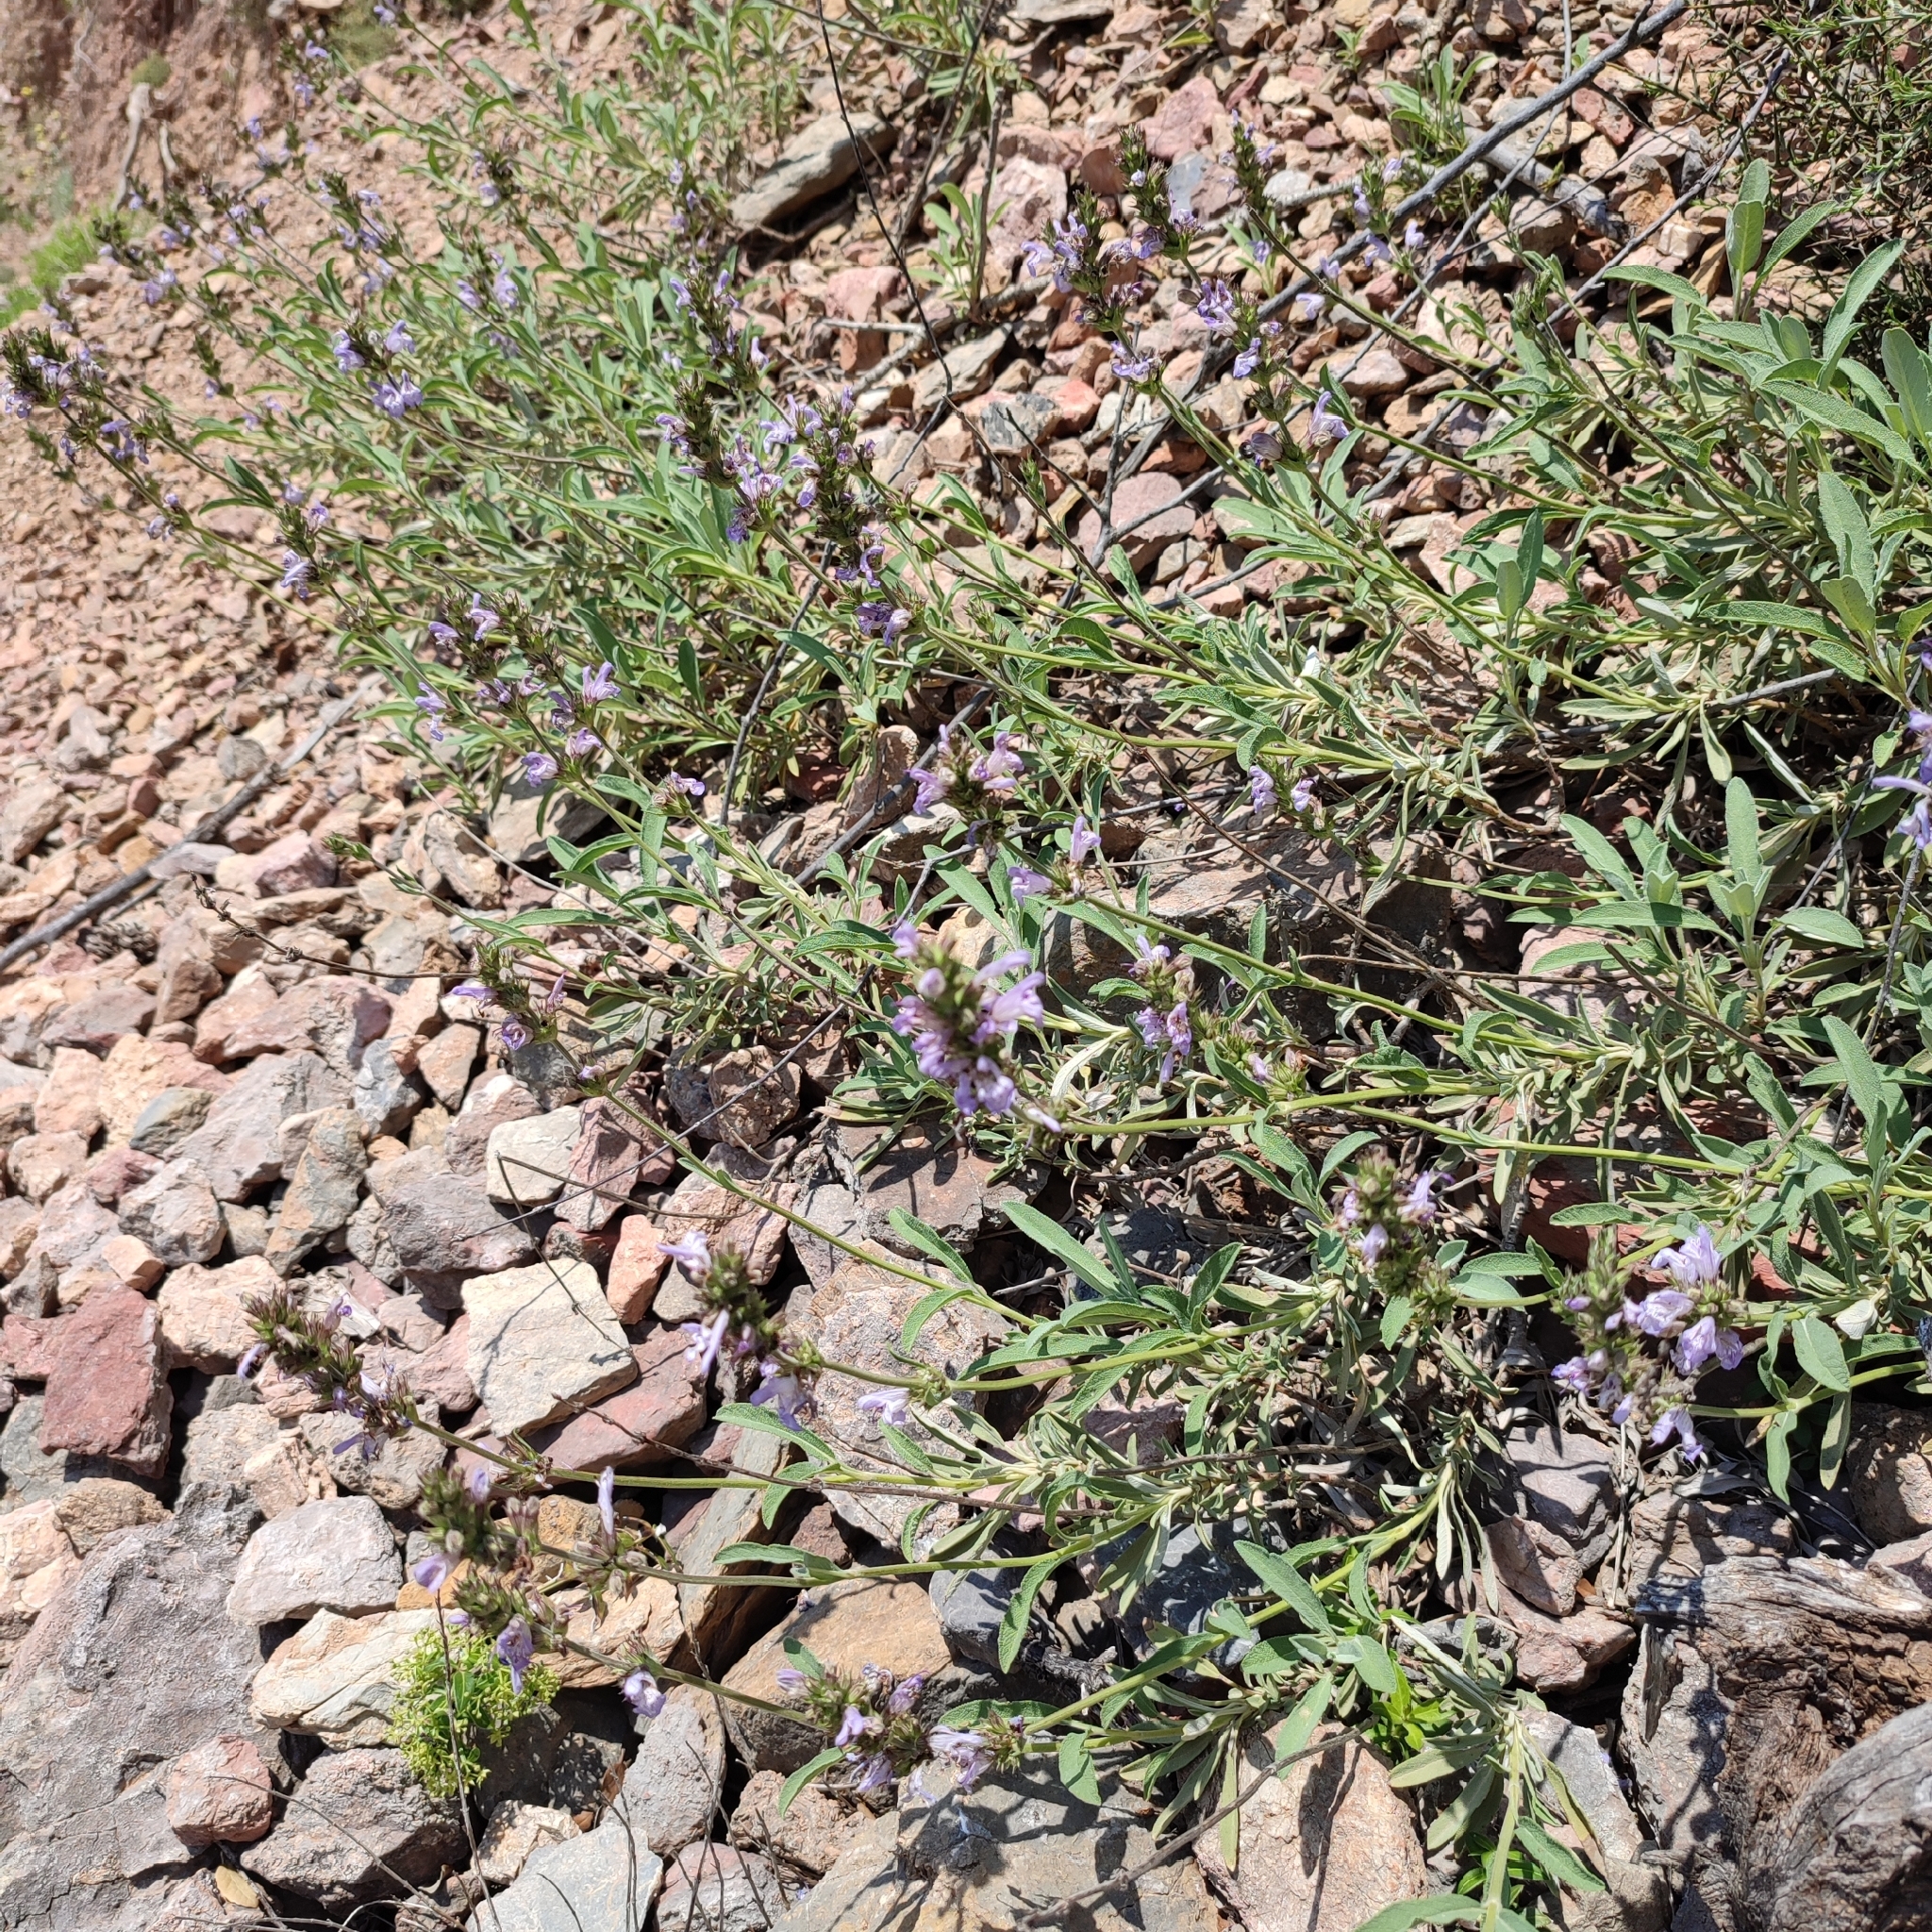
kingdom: Plantae
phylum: Tracheophyta
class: Magnoliopsida
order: Lamiales
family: Lamiaceae
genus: Salvia
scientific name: Salvia officinalis
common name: Sage
